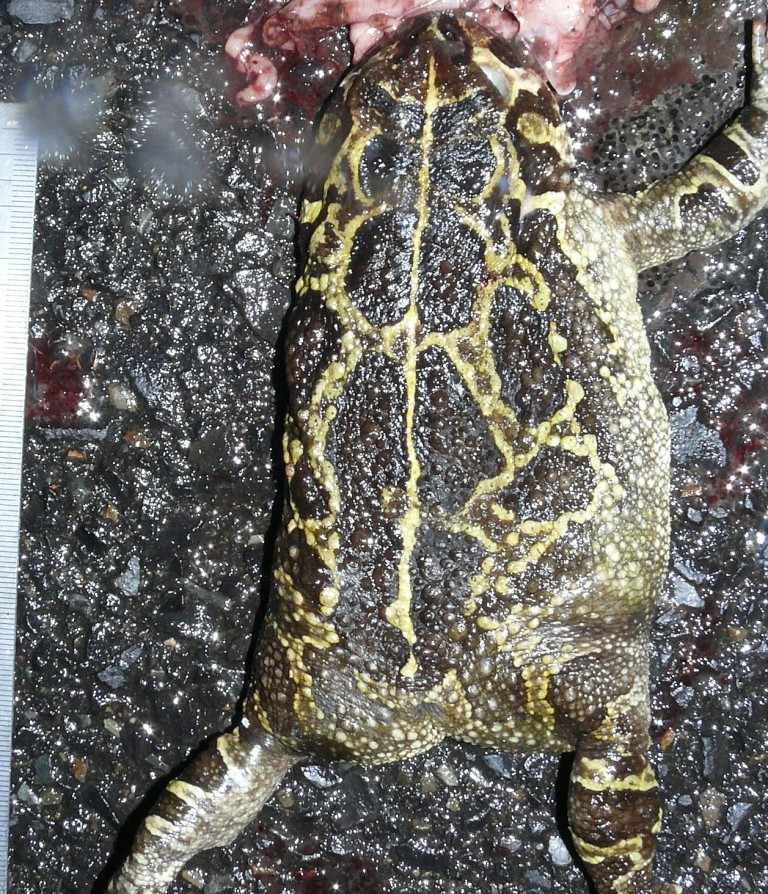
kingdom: Animalia
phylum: Chordata
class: Amphibia
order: Anura
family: Bufonidae
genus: Sclerophrys
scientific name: Sclerophrys pantherina
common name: Panther toad
